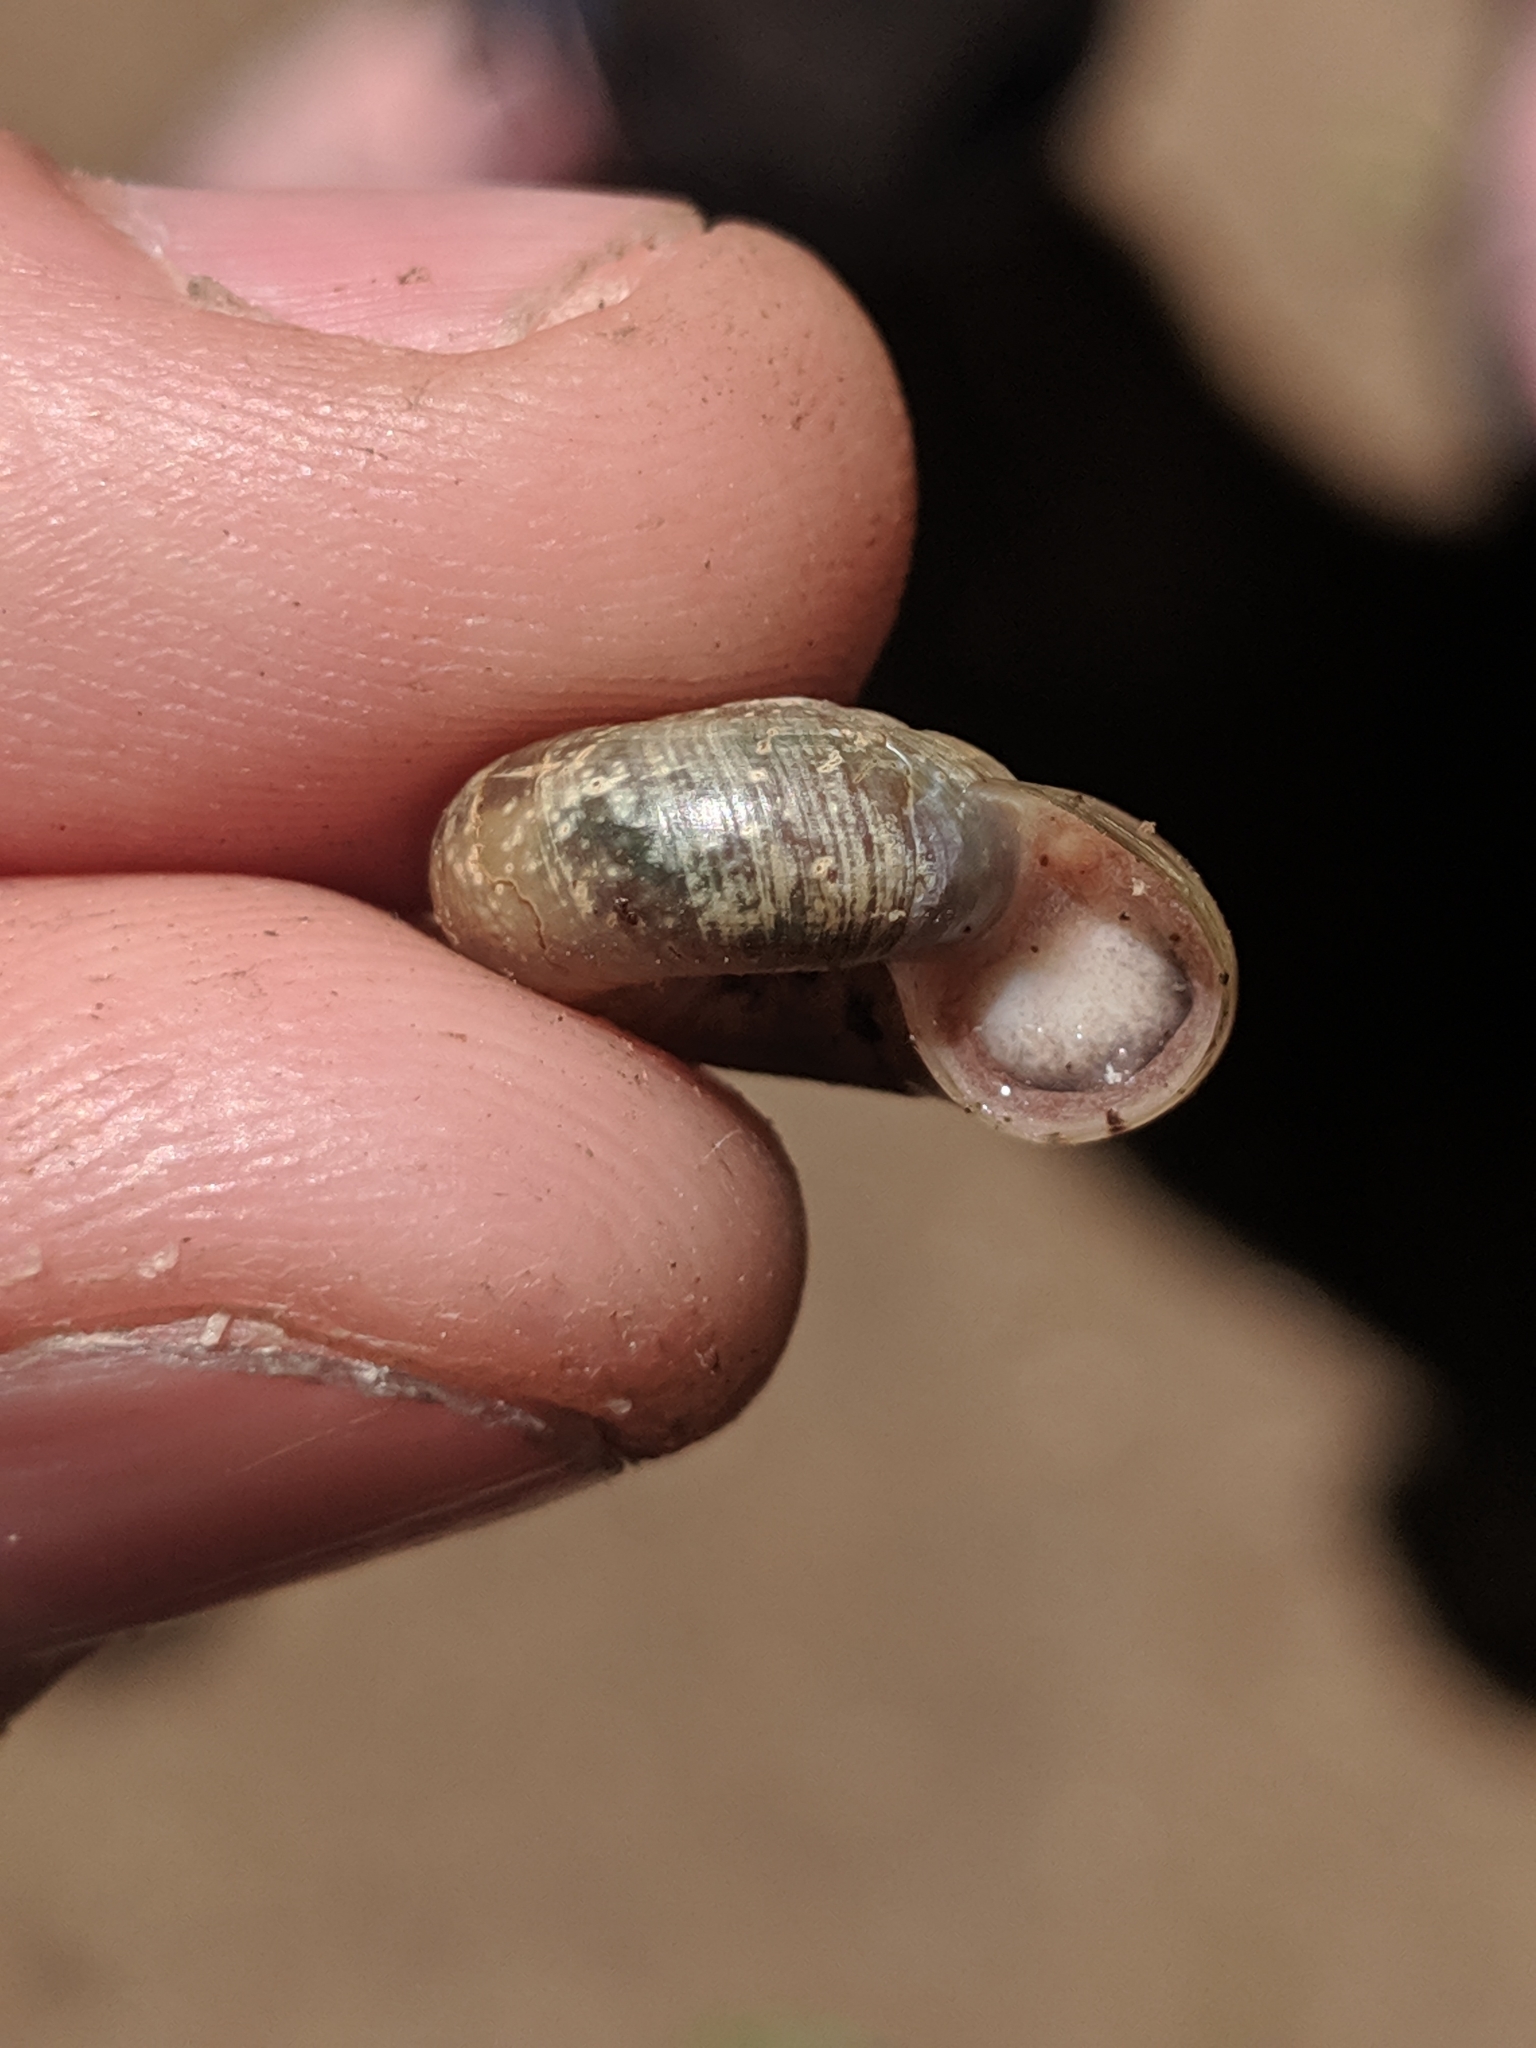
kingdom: Animalia
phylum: Mollusca
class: Gastropoda
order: Stylommatophora
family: Haplotrematidae
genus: Haplotrema
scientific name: Haplotrema concavum
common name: Gray-foot lancetooth
